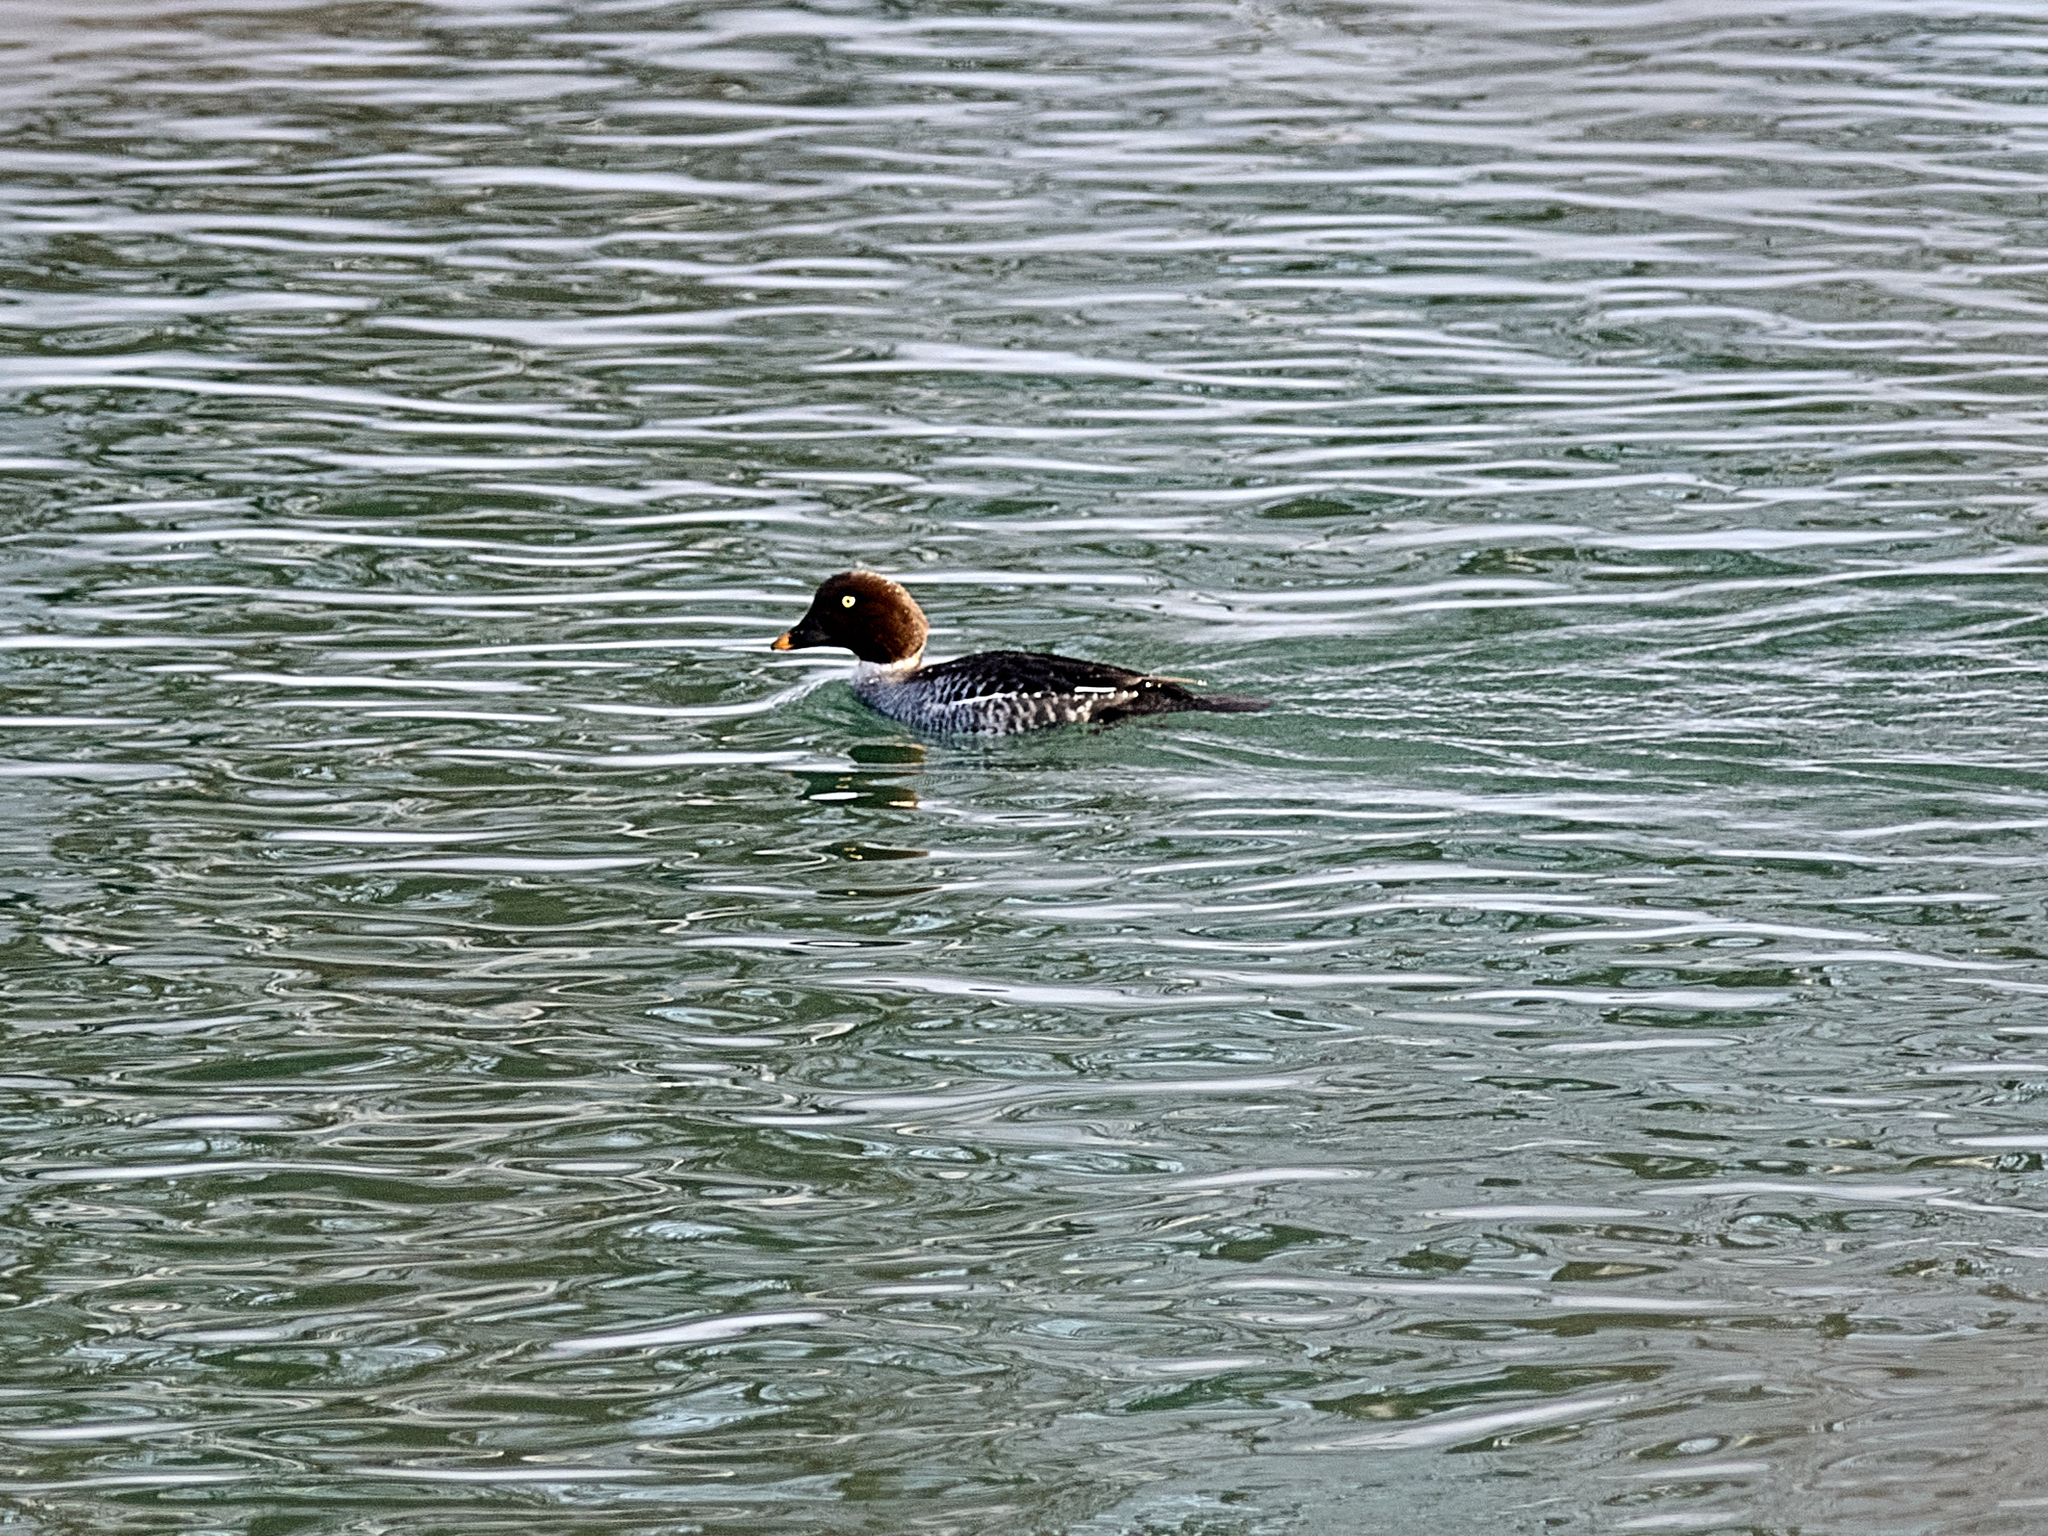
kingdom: Animalia
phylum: Chordata
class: Aves
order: Anseriformes
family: Anatidae
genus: Bucephala
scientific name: Bucephala clangula
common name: Common goldeneye
